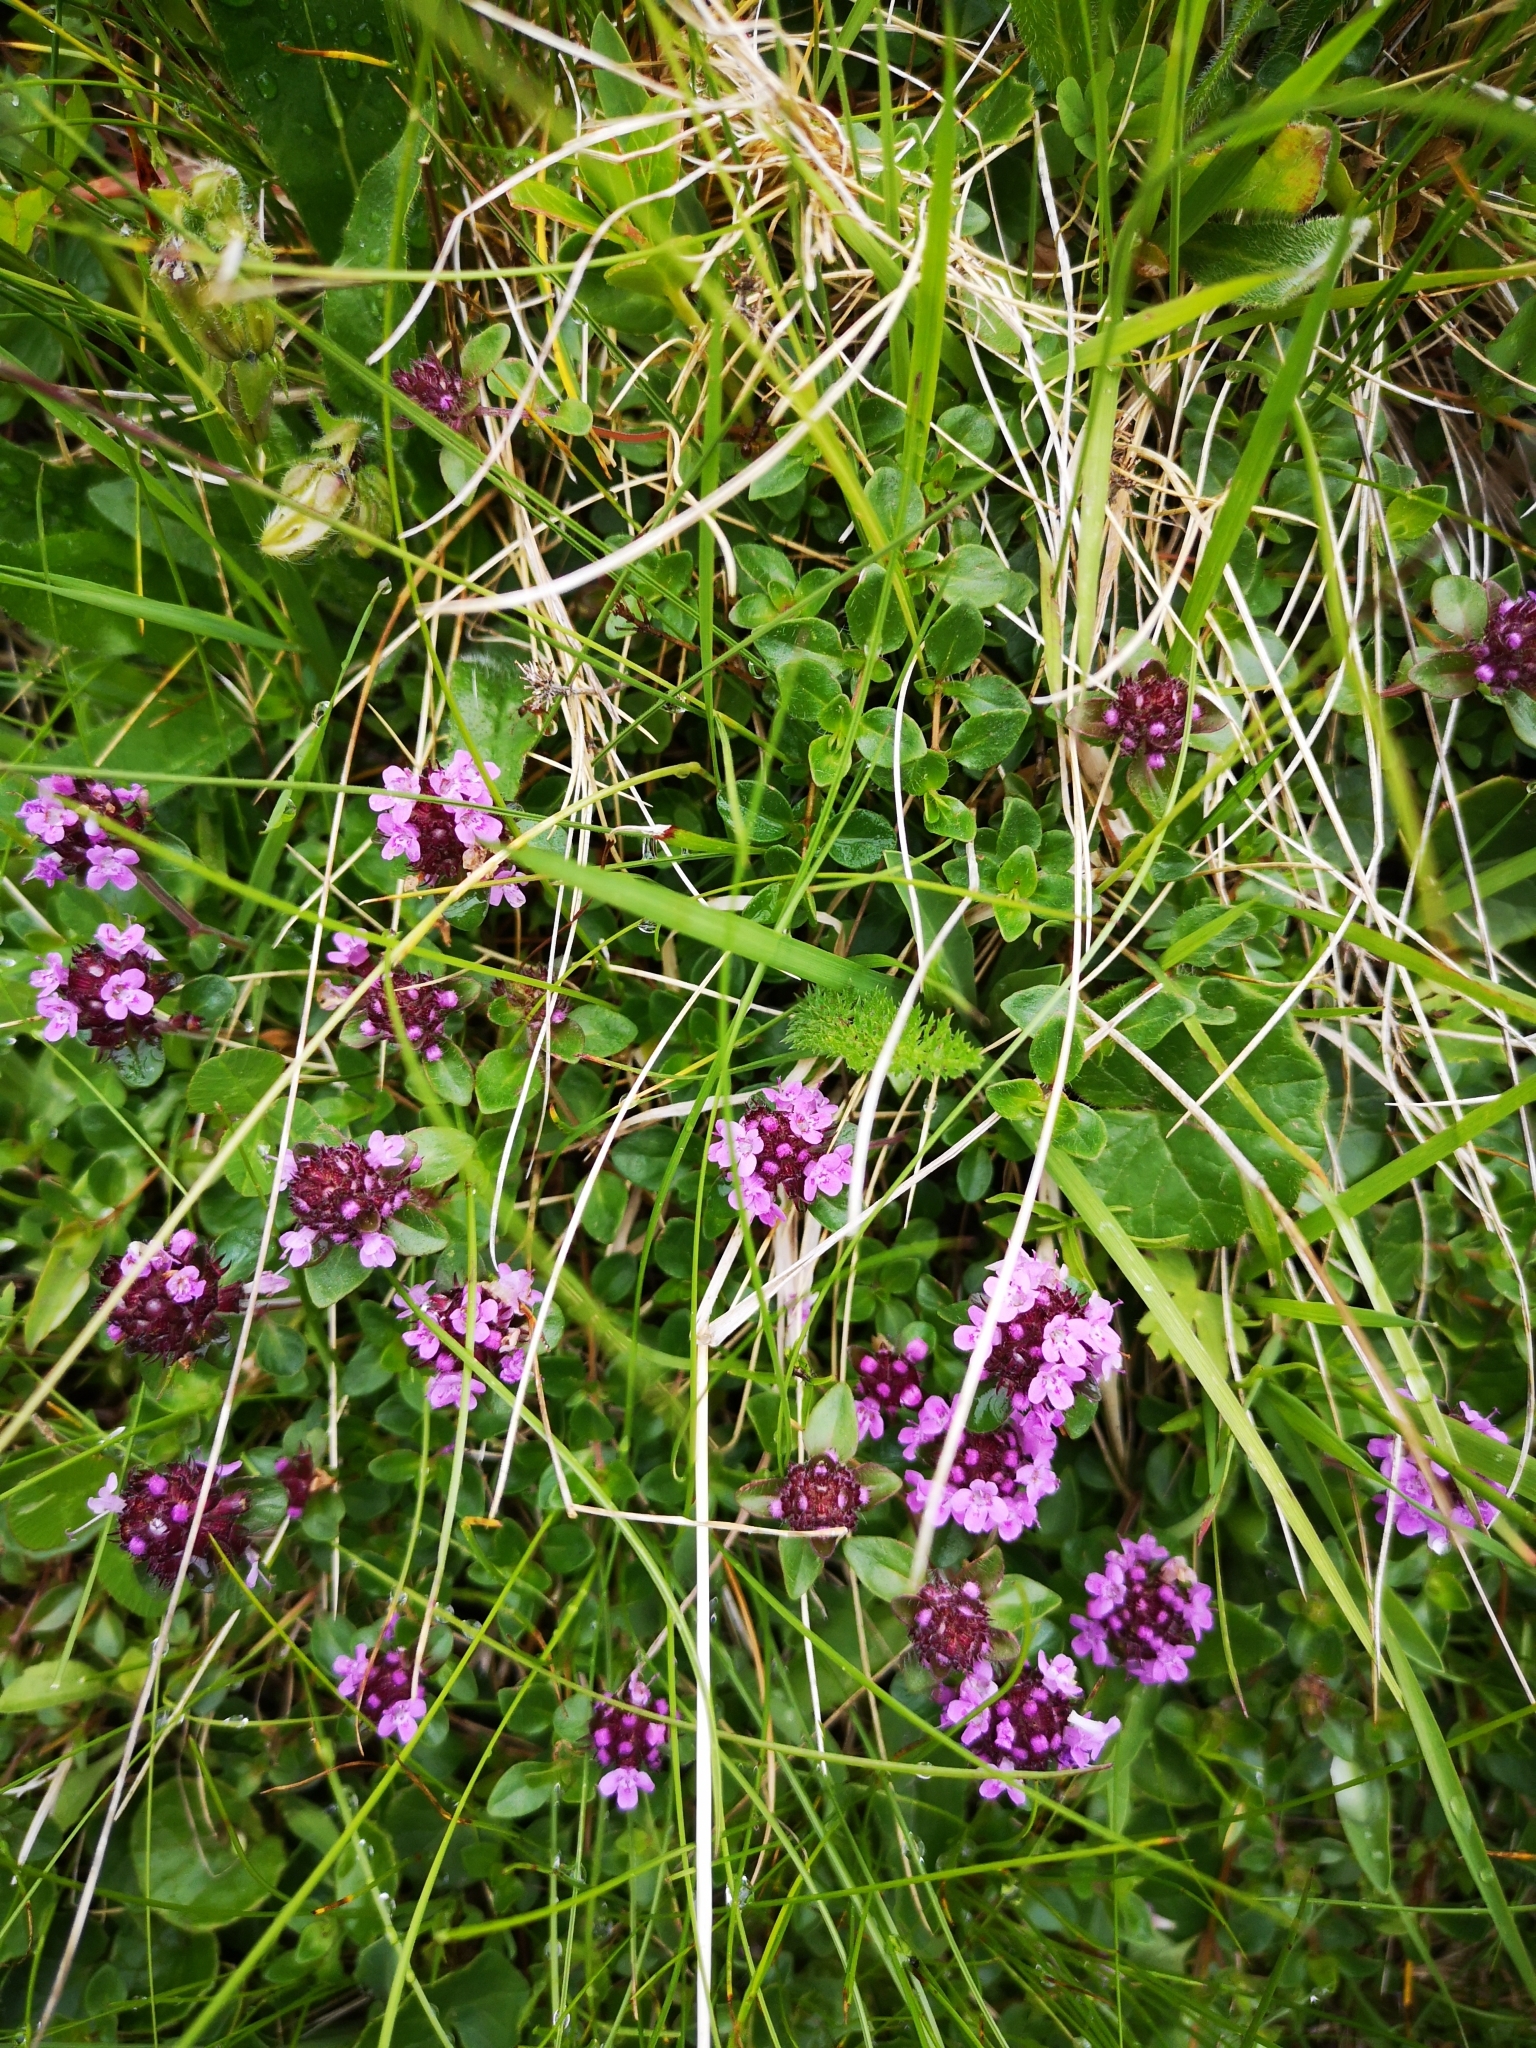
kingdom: Plantae
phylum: Tracheophyta
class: Magnoliopsida
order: Lamiales
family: Lamiaceae
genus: Thymus
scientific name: Thymus pulegioides
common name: Large thyme
